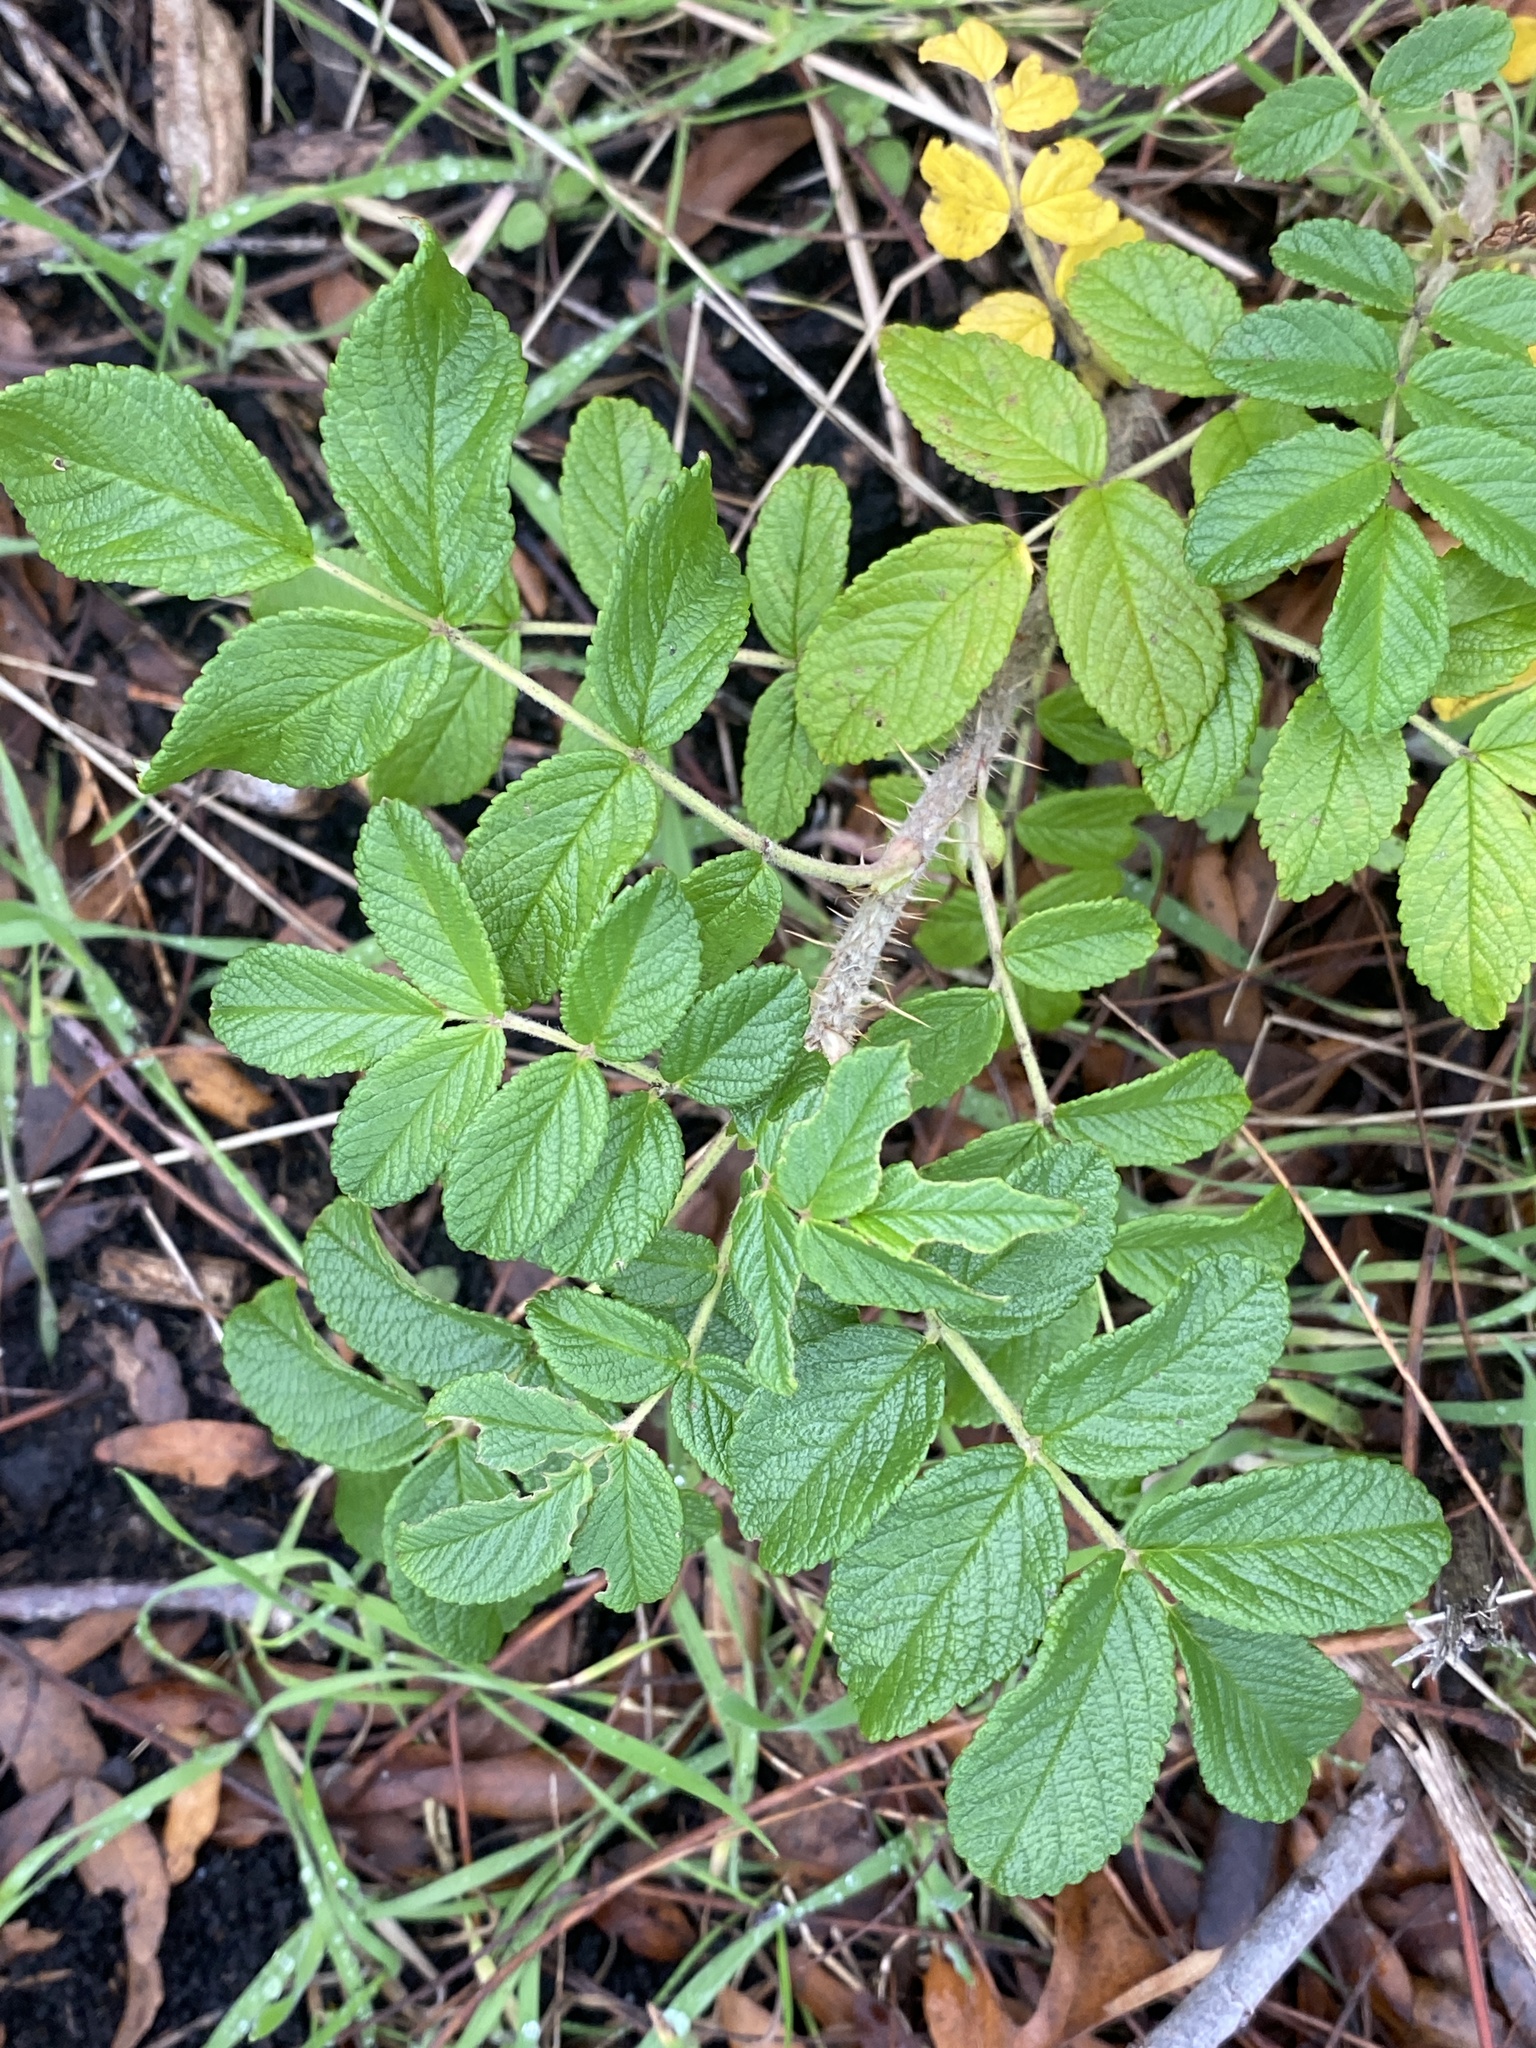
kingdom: Plantae
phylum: Tracheophyta
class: Magnoliopsida
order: Rosales
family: Rosaceae
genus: Rosa
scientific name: Rosa rugosa
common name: Japanese rose
